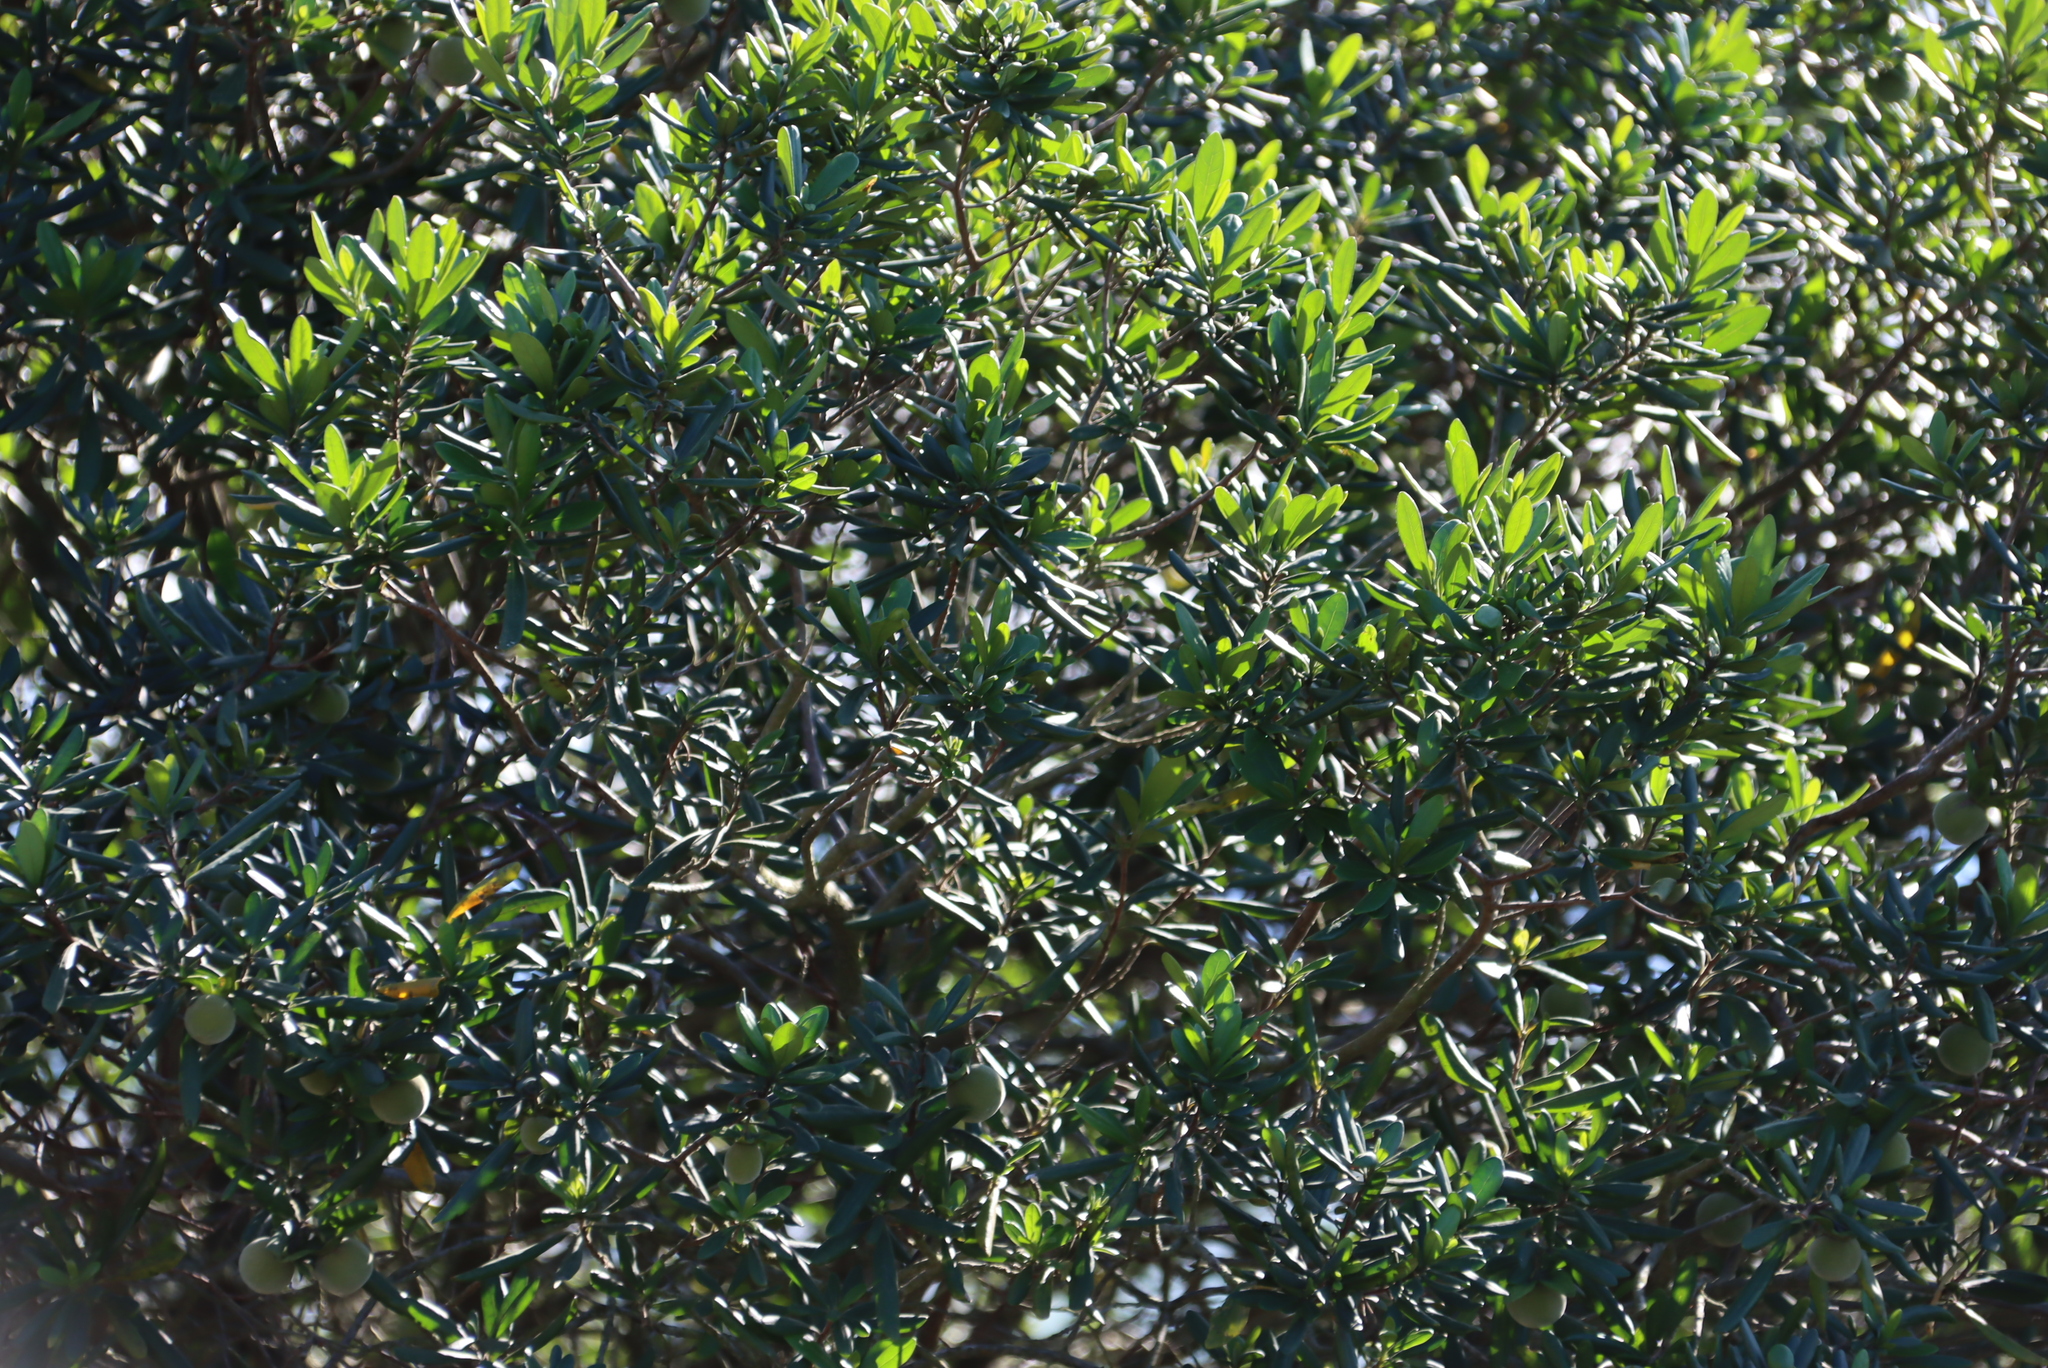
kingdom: Plantae
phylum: Tracheophyta
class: Magnoliopsida
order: Ericales
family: Ebenaceae
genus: Diospyros
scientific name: Diospyros dichrophylla
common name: Common star-apple
